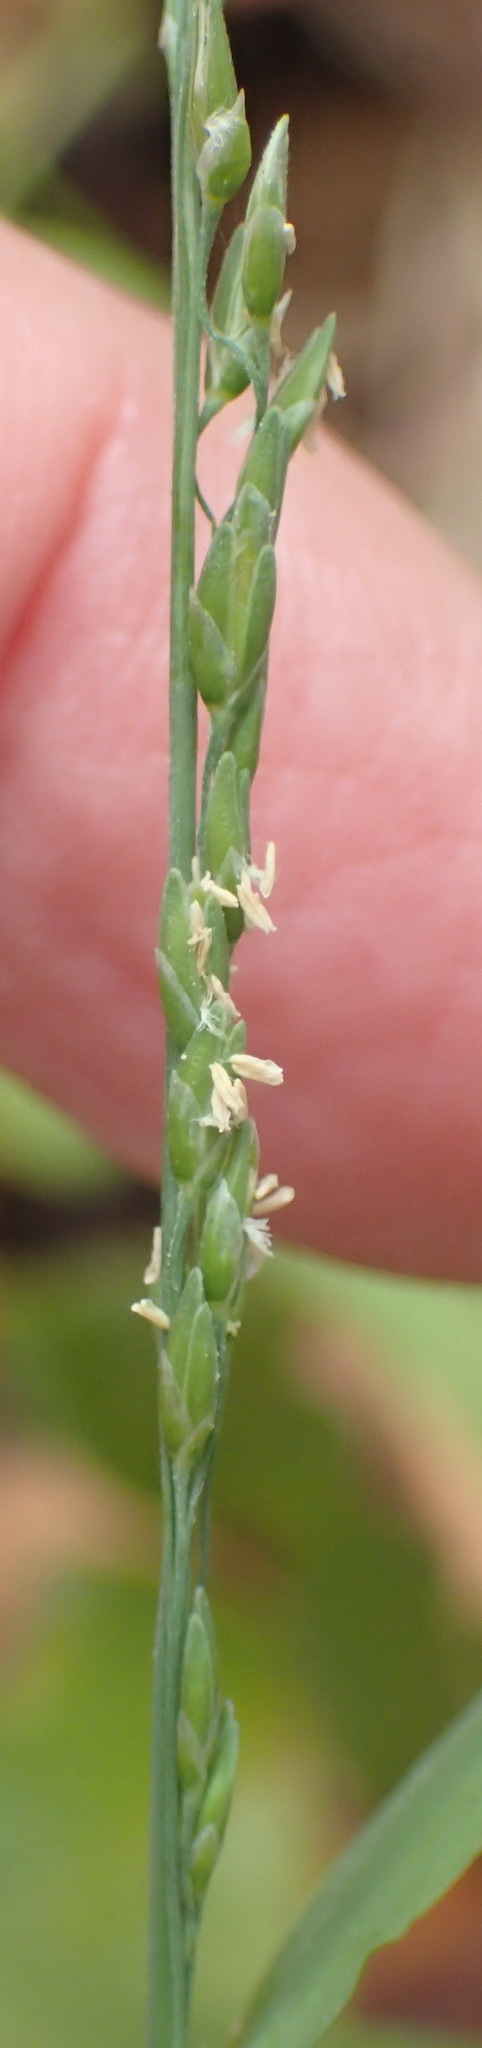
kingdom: Plantae
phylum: Tracheophyta
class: Liliopsida
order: Poales
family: Poaceae
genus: Ehrharta
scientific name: Ehrharta erecta
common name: Panic veldtgrass
